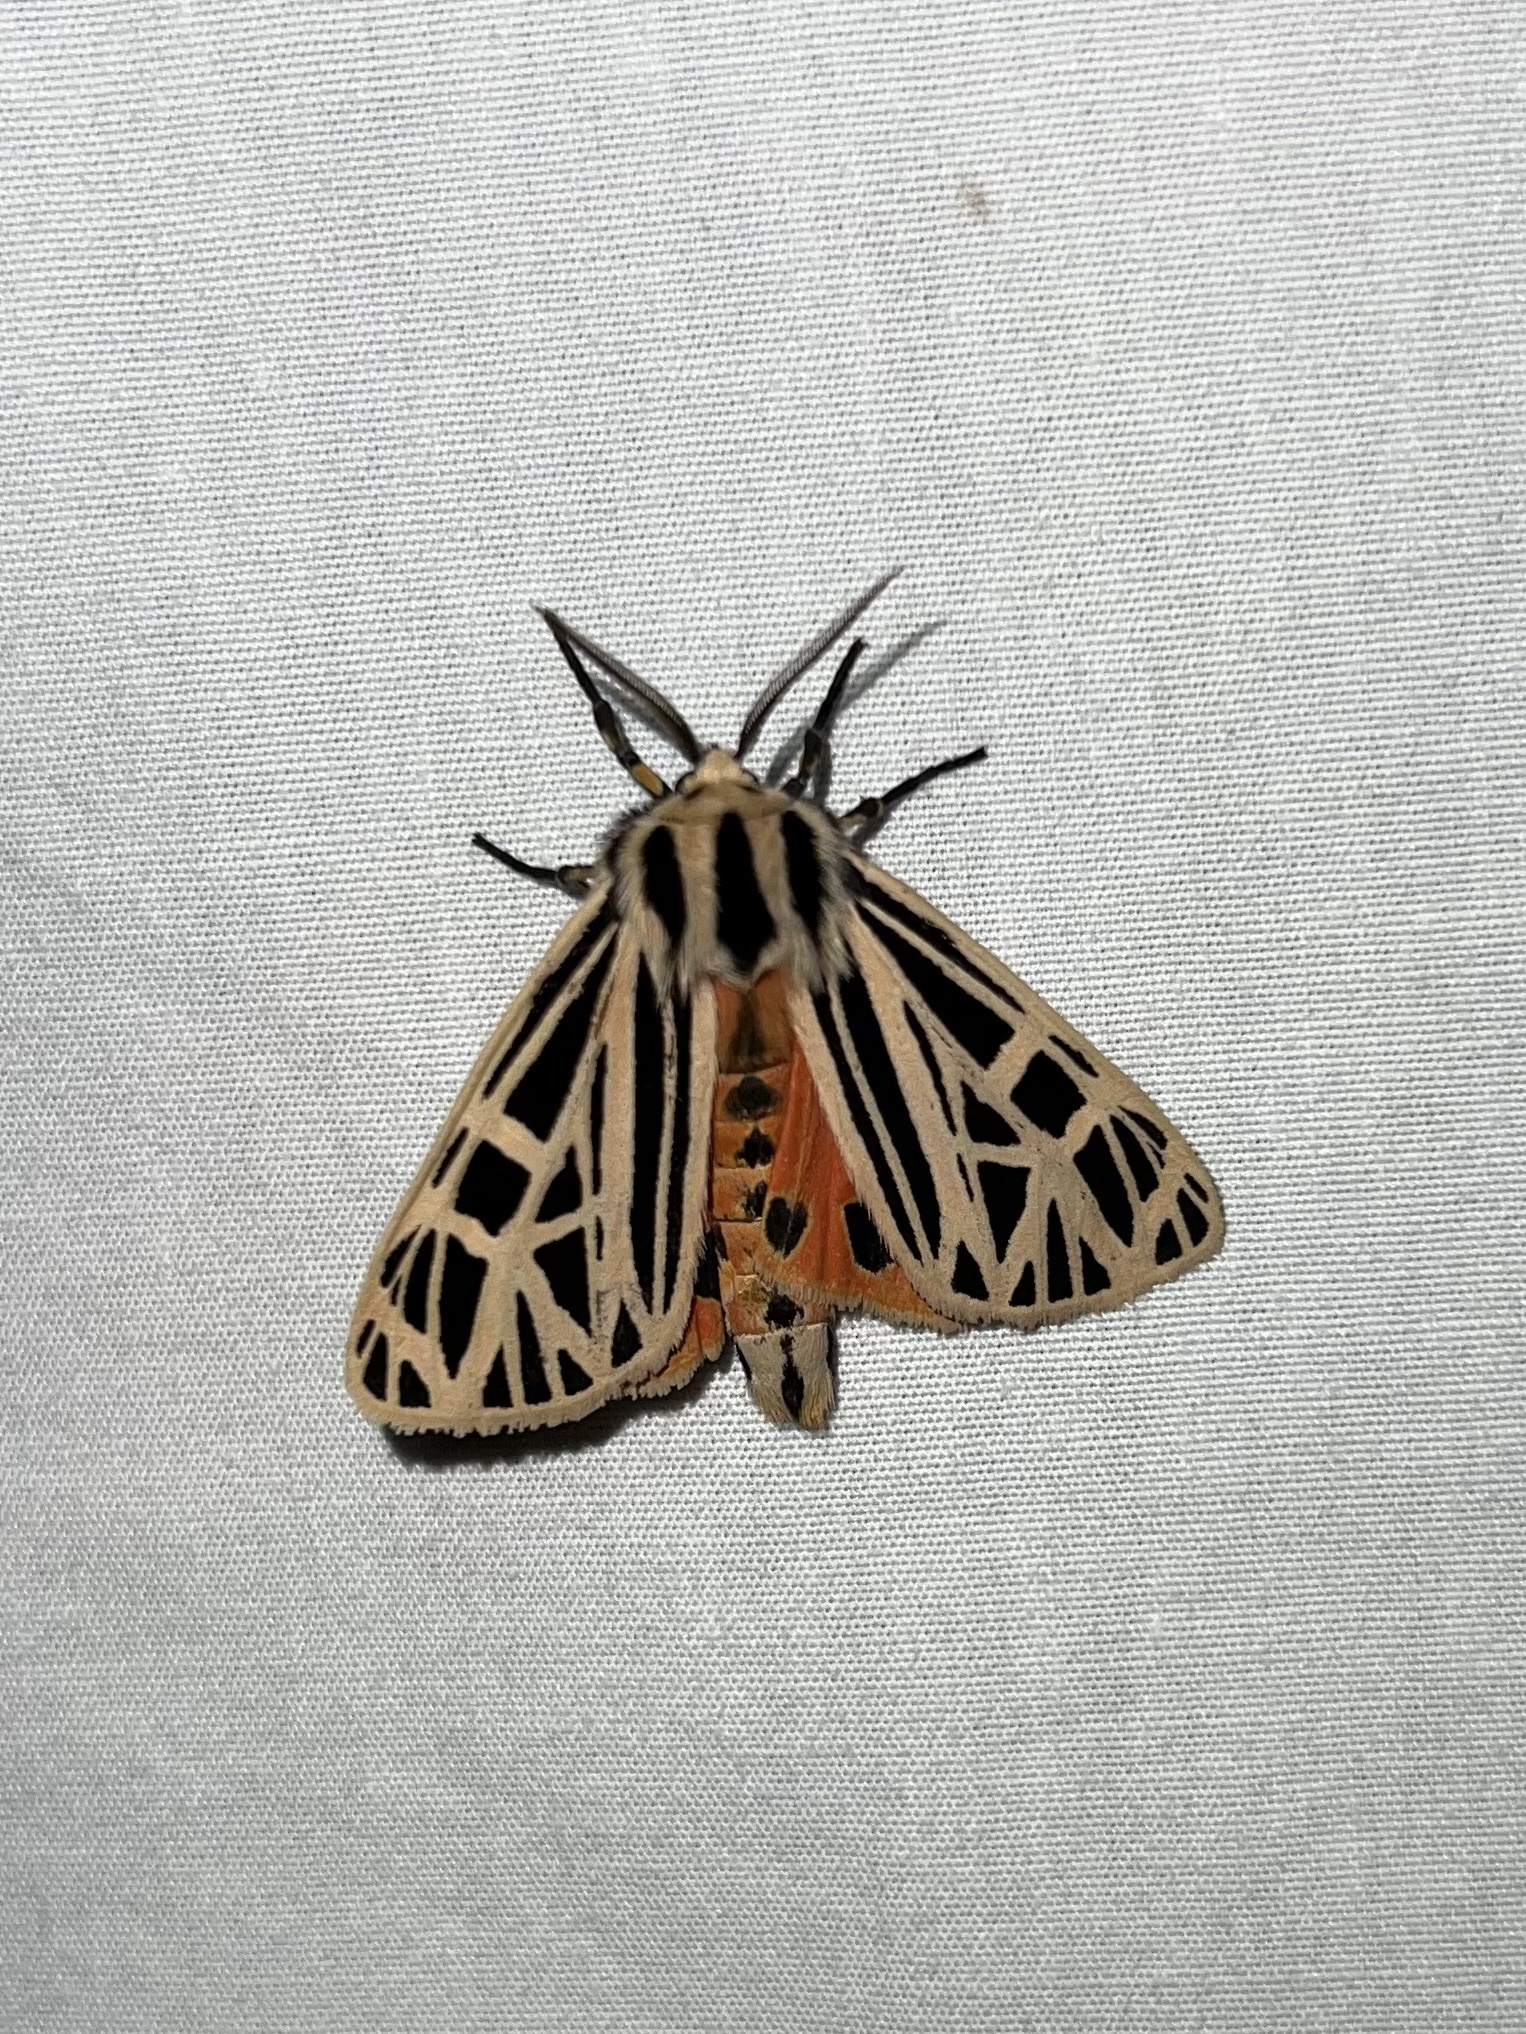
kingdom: Animalia
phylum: Arthropoda
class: Insecta
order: Lepidoptera
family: Erebidae
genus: Grammia
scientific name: Grammia virgo
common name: Virgin tiger moth
